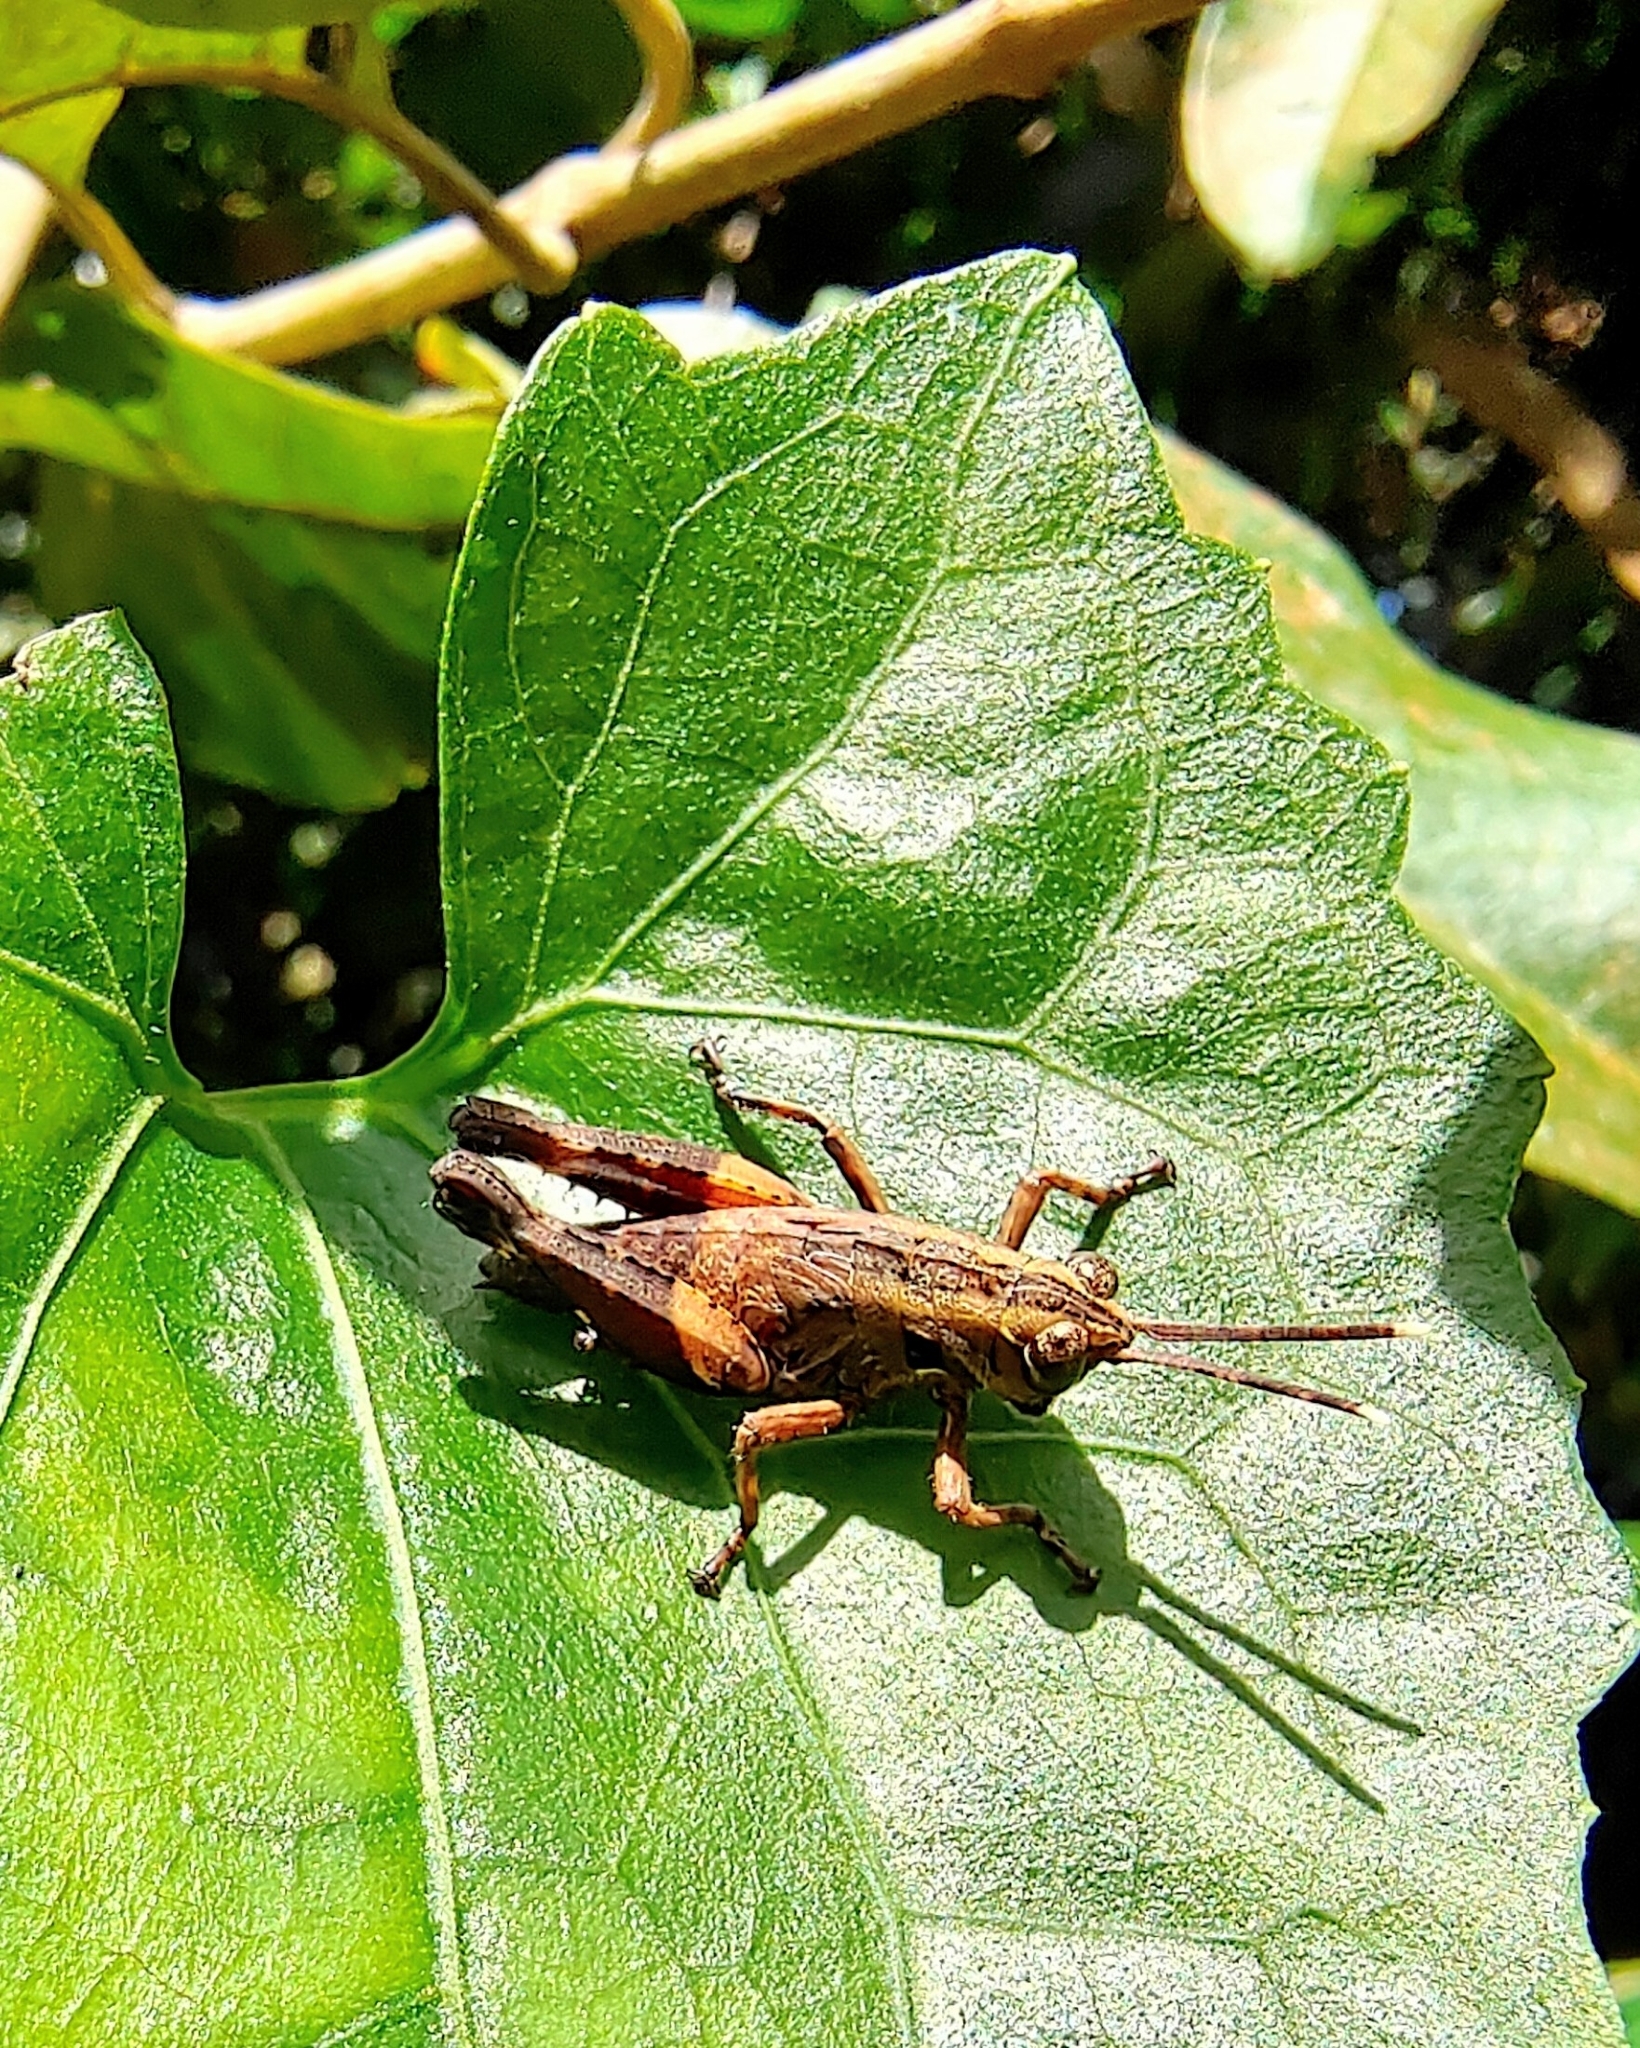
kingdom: Animalia
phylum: Arthropoda
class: Insecta
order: Orthoptera
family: Acrididae
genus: Traulia
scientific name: Traulia azureipennis
